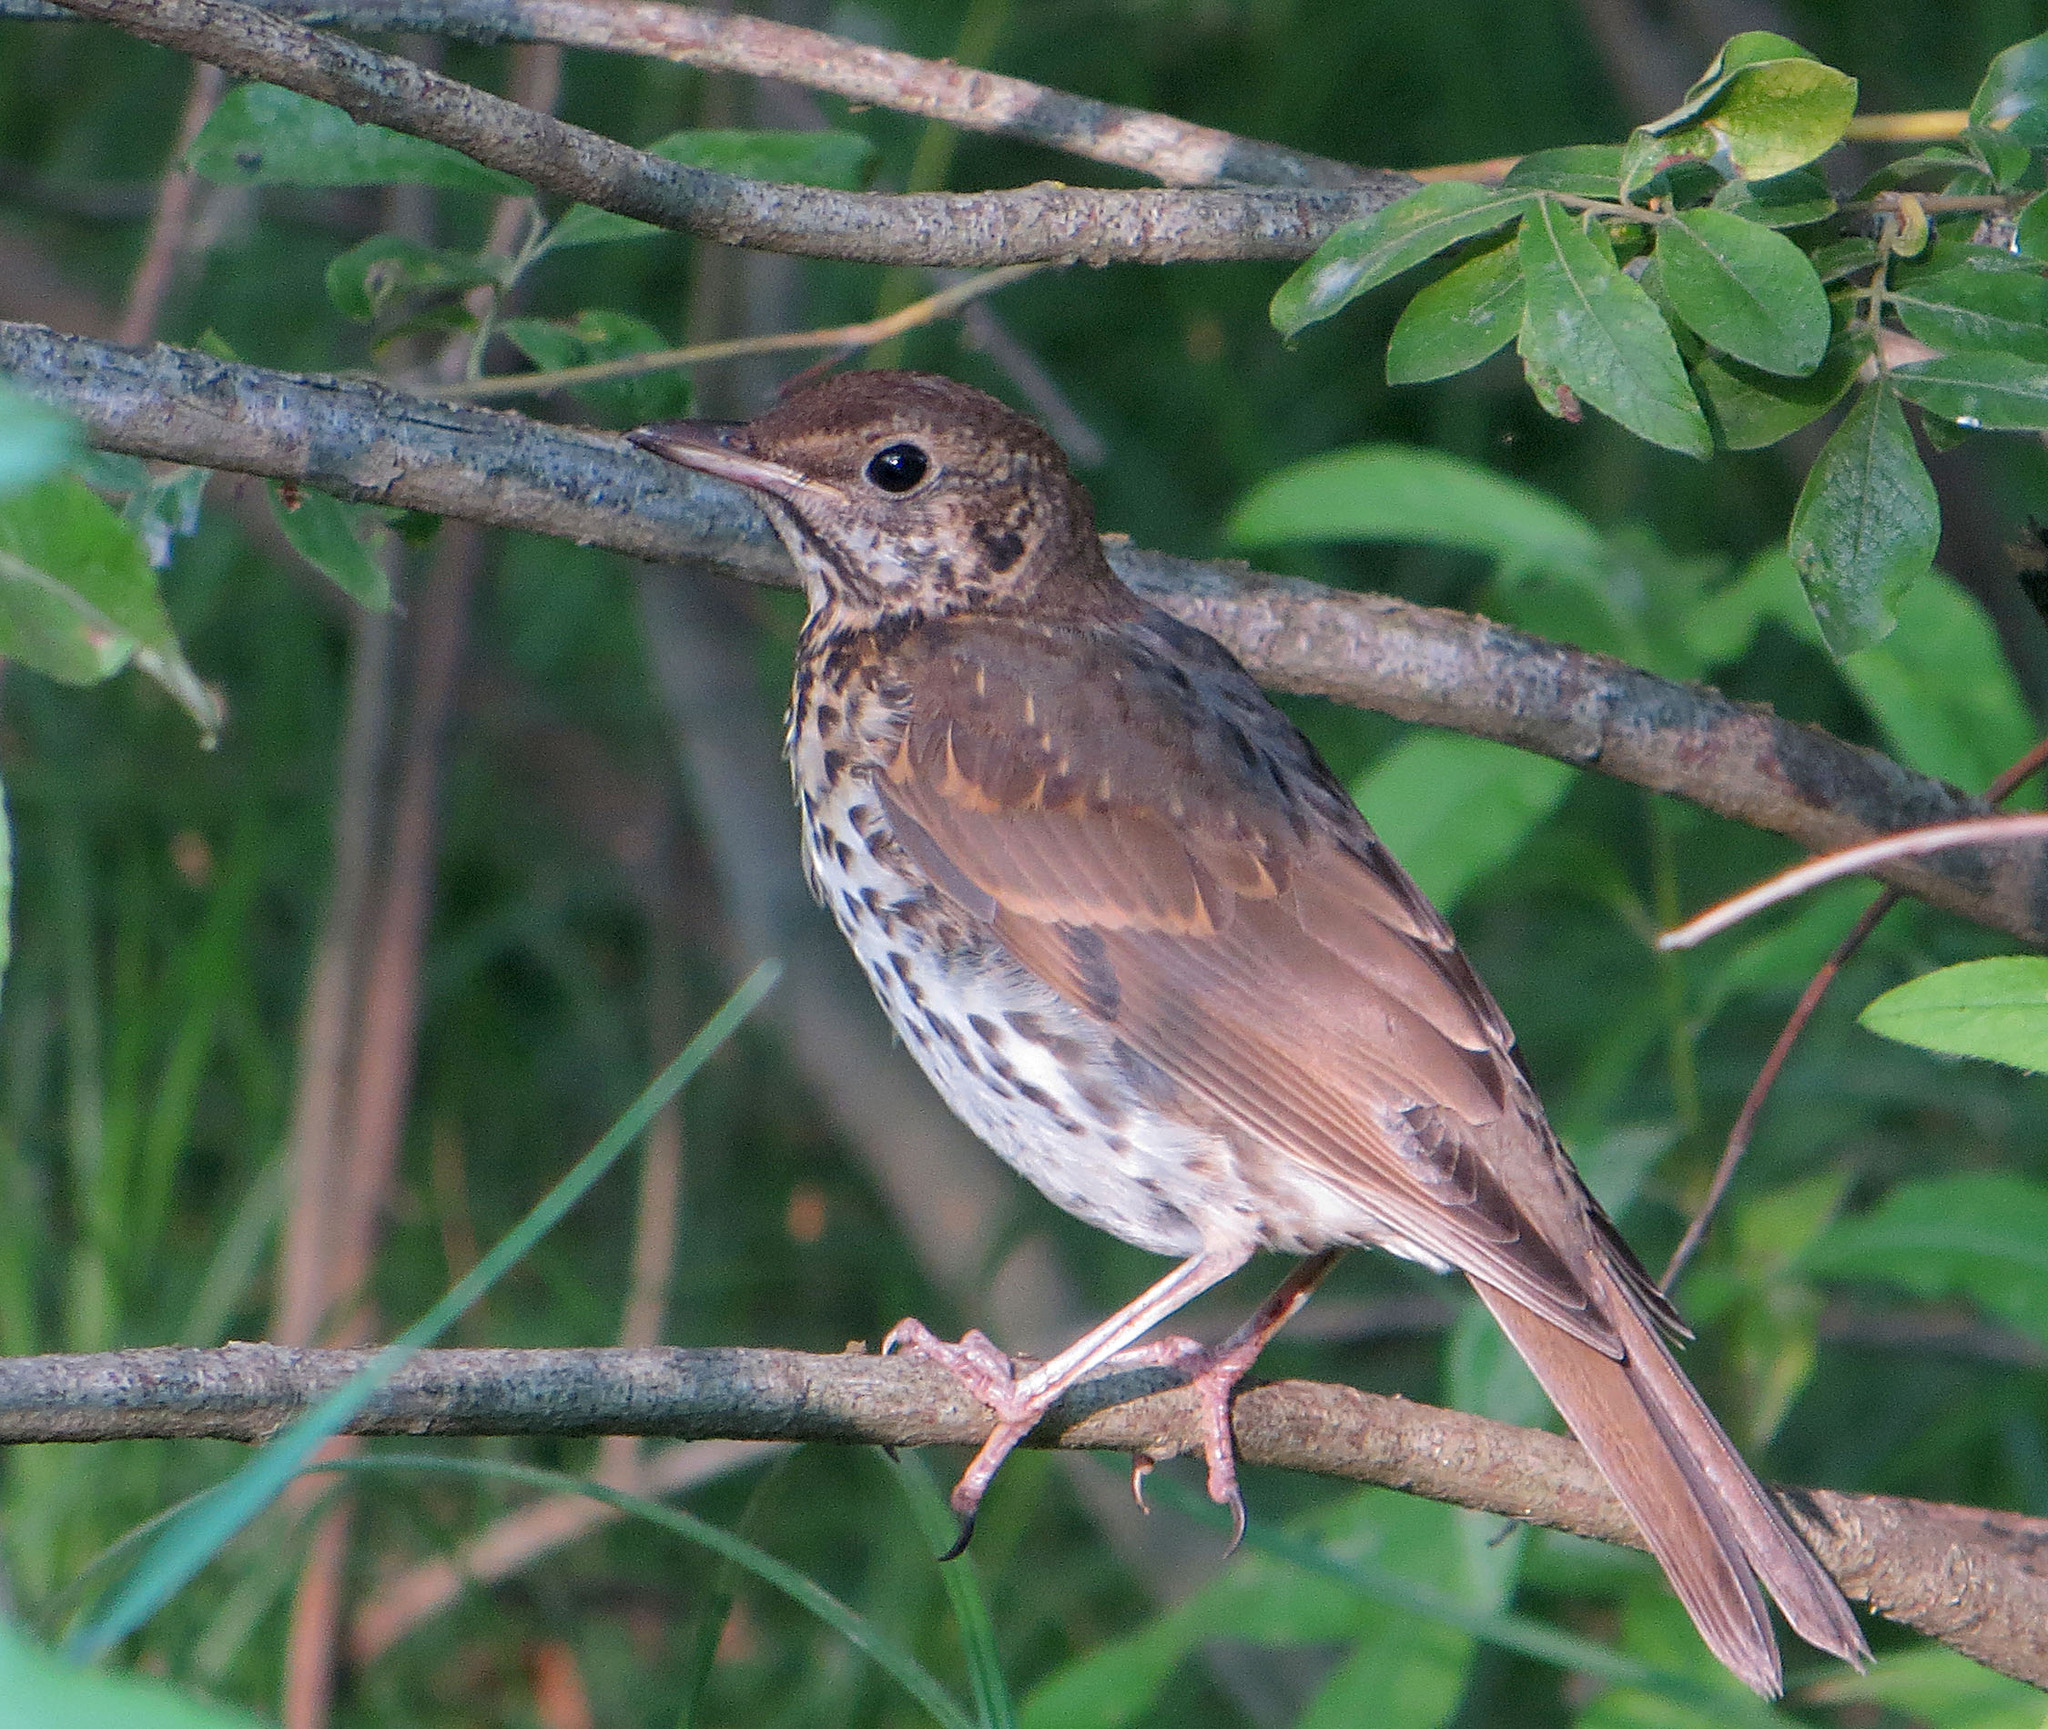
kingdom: Animalia
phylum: Chordata
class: Aves
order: Passeriformes
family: Turdidae
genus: Turdus
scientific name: Turdus philomelos
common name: Song thrush
